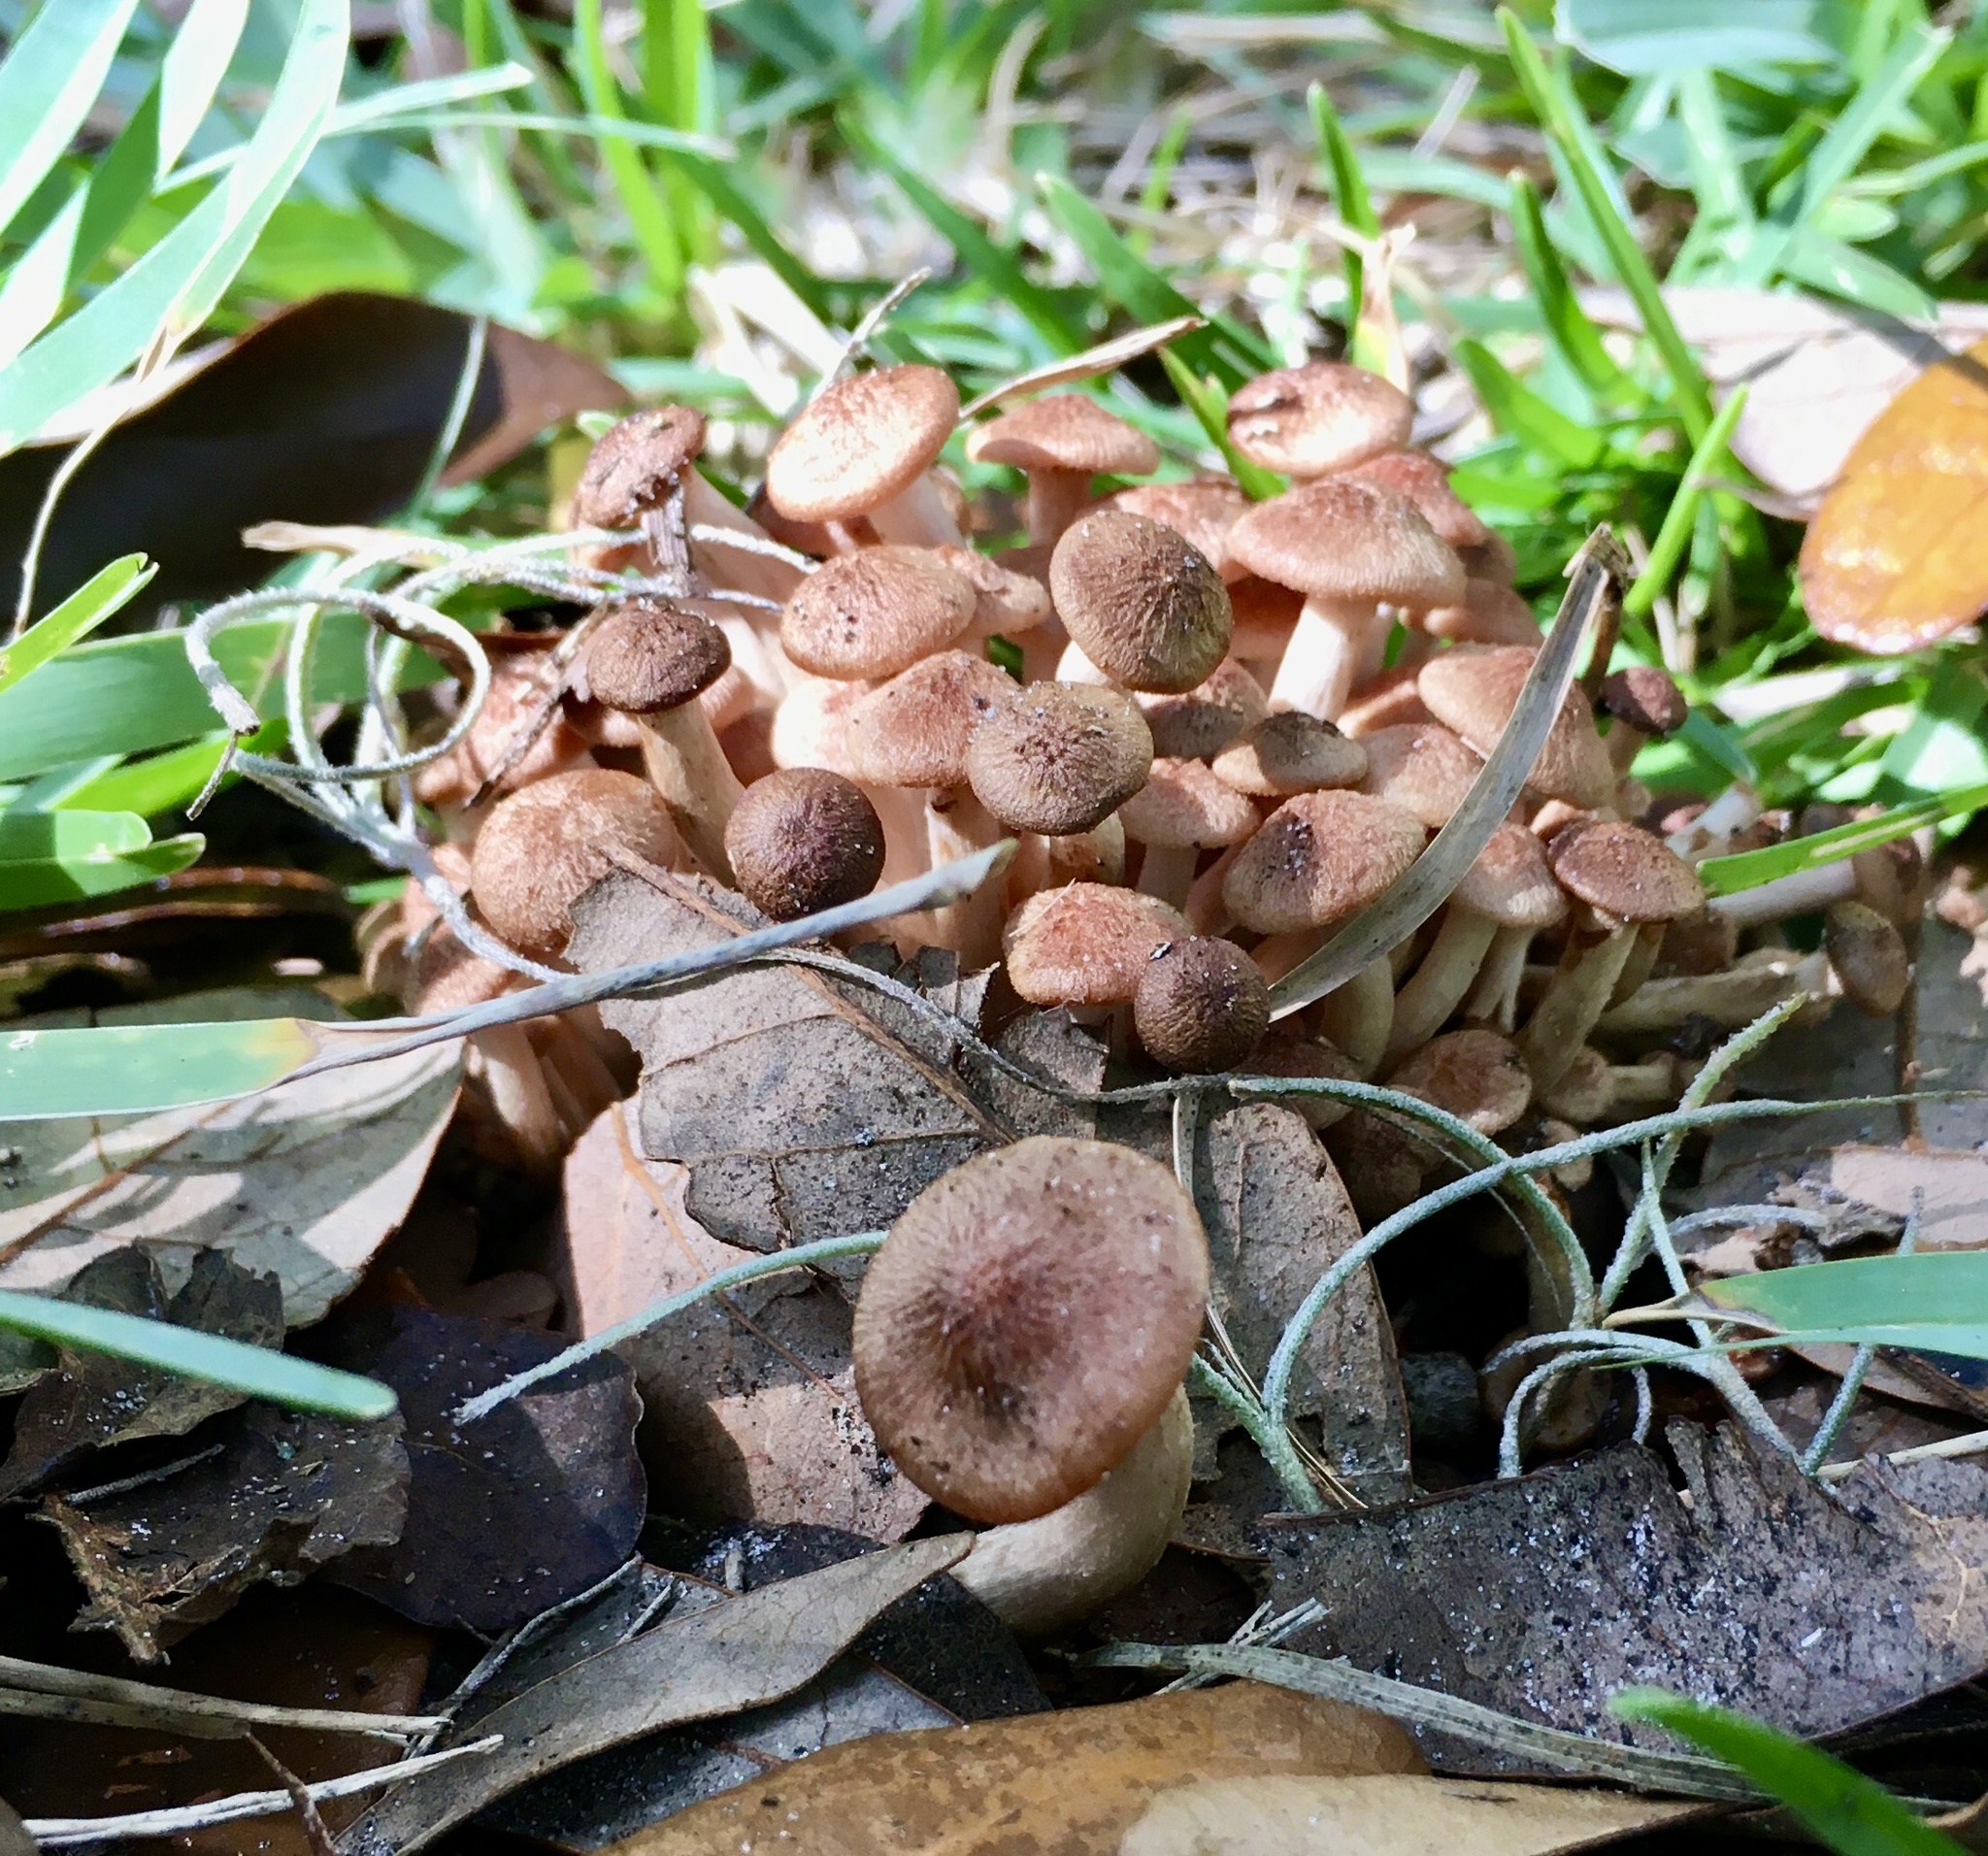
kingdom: Fungi
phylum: Basidiomycota
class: Agaricomycetes
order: Agaricales
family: Physalacriaceae
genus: Desarmillaria
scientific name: Desarmillaria caespitosa
